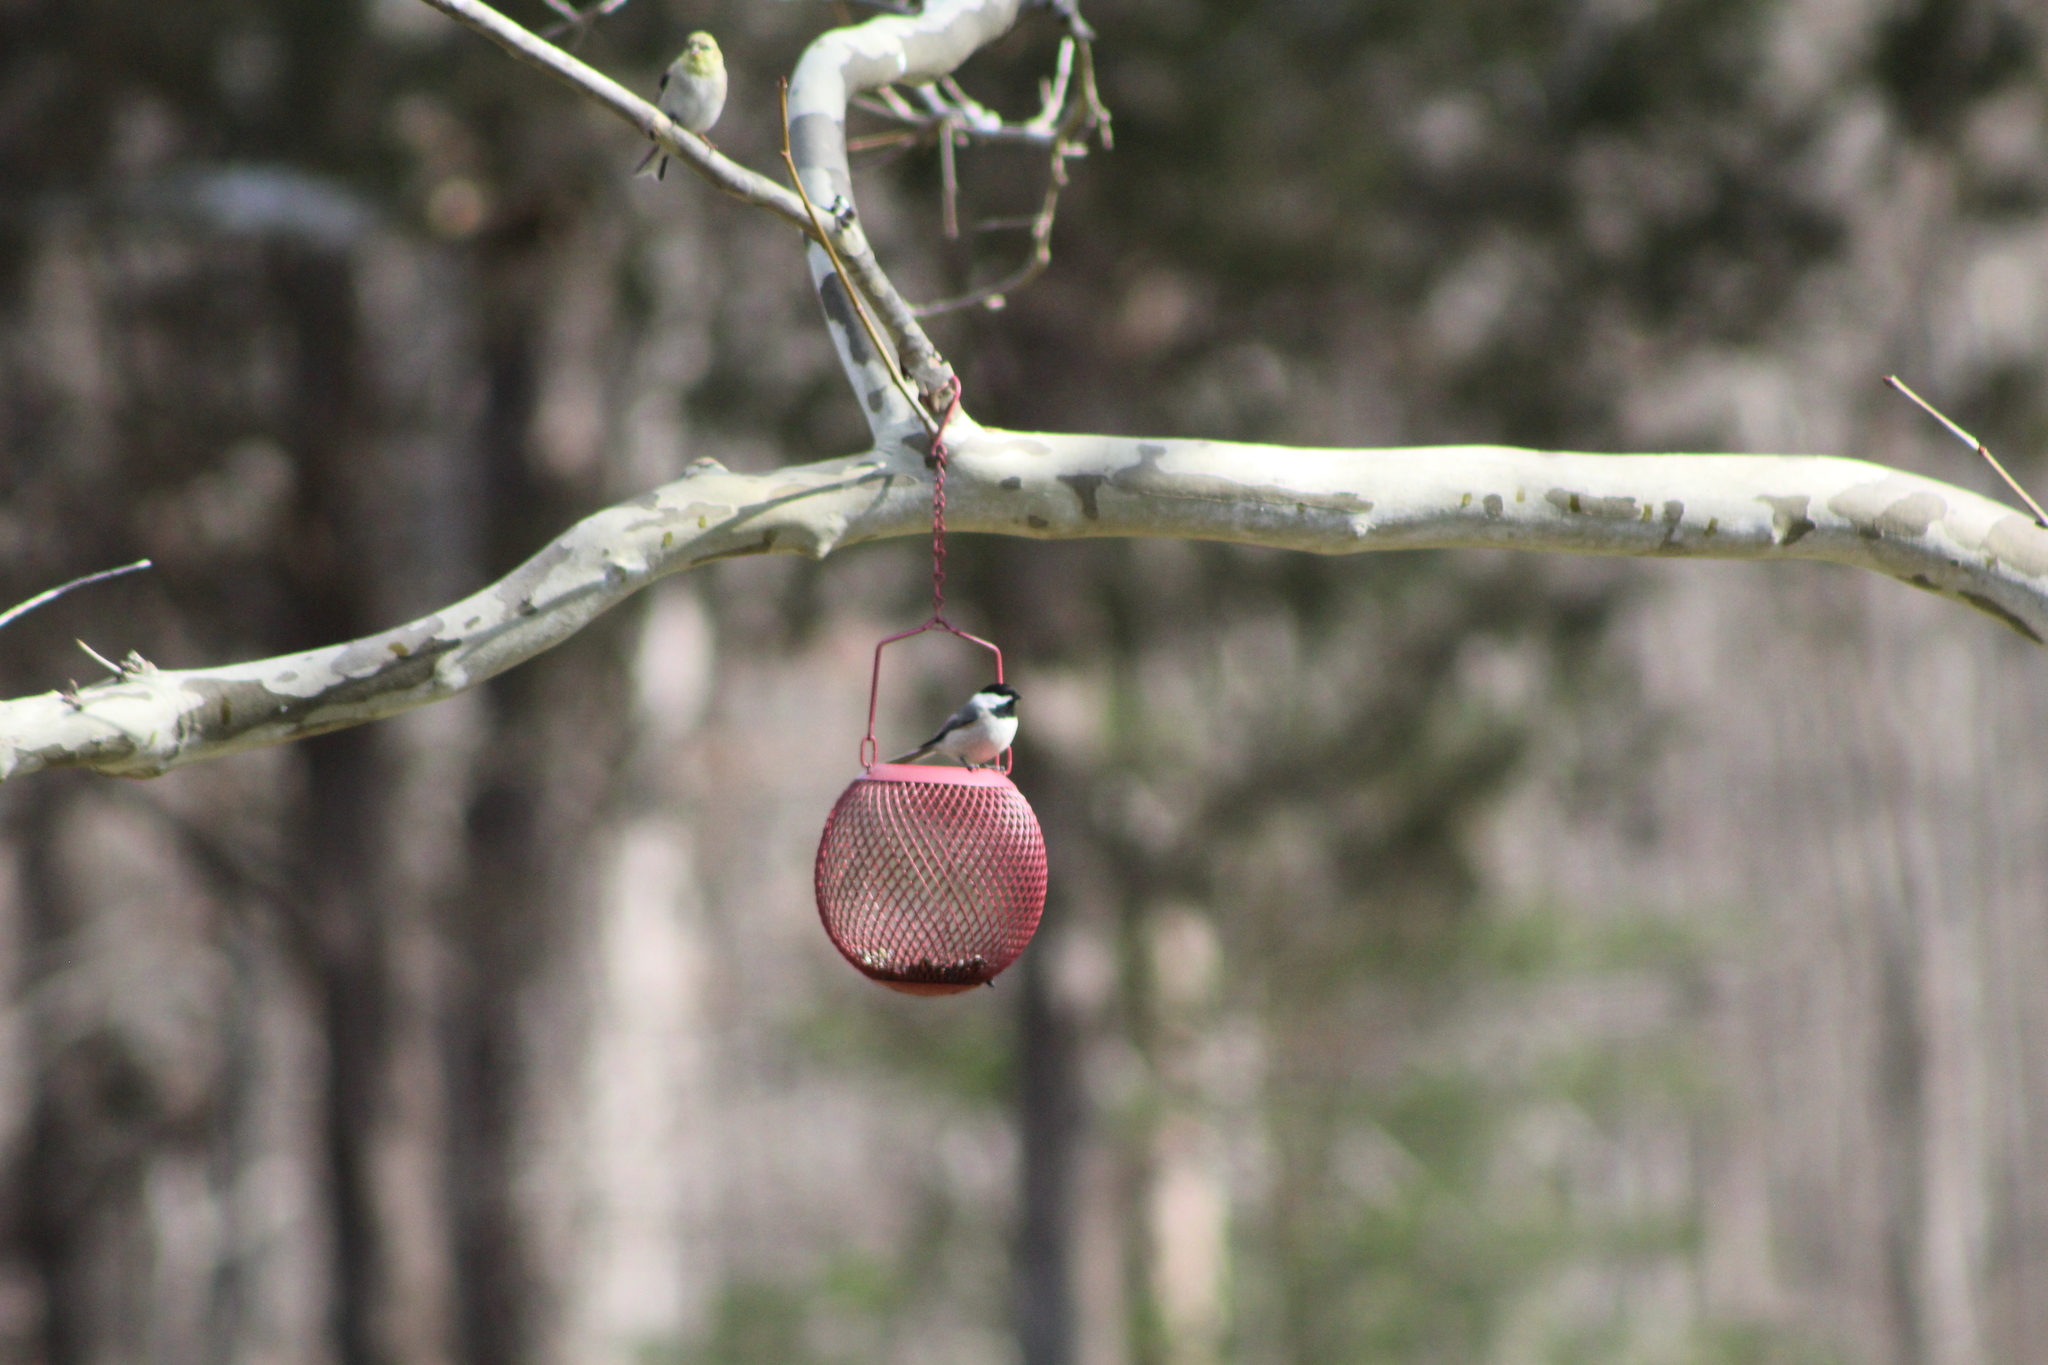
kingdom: Animalia
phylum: Chordata
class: Aves
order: Passeriformes
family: Paridae
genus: Poecile
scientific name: Poecile carolinensis
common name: Carolina chickadee
